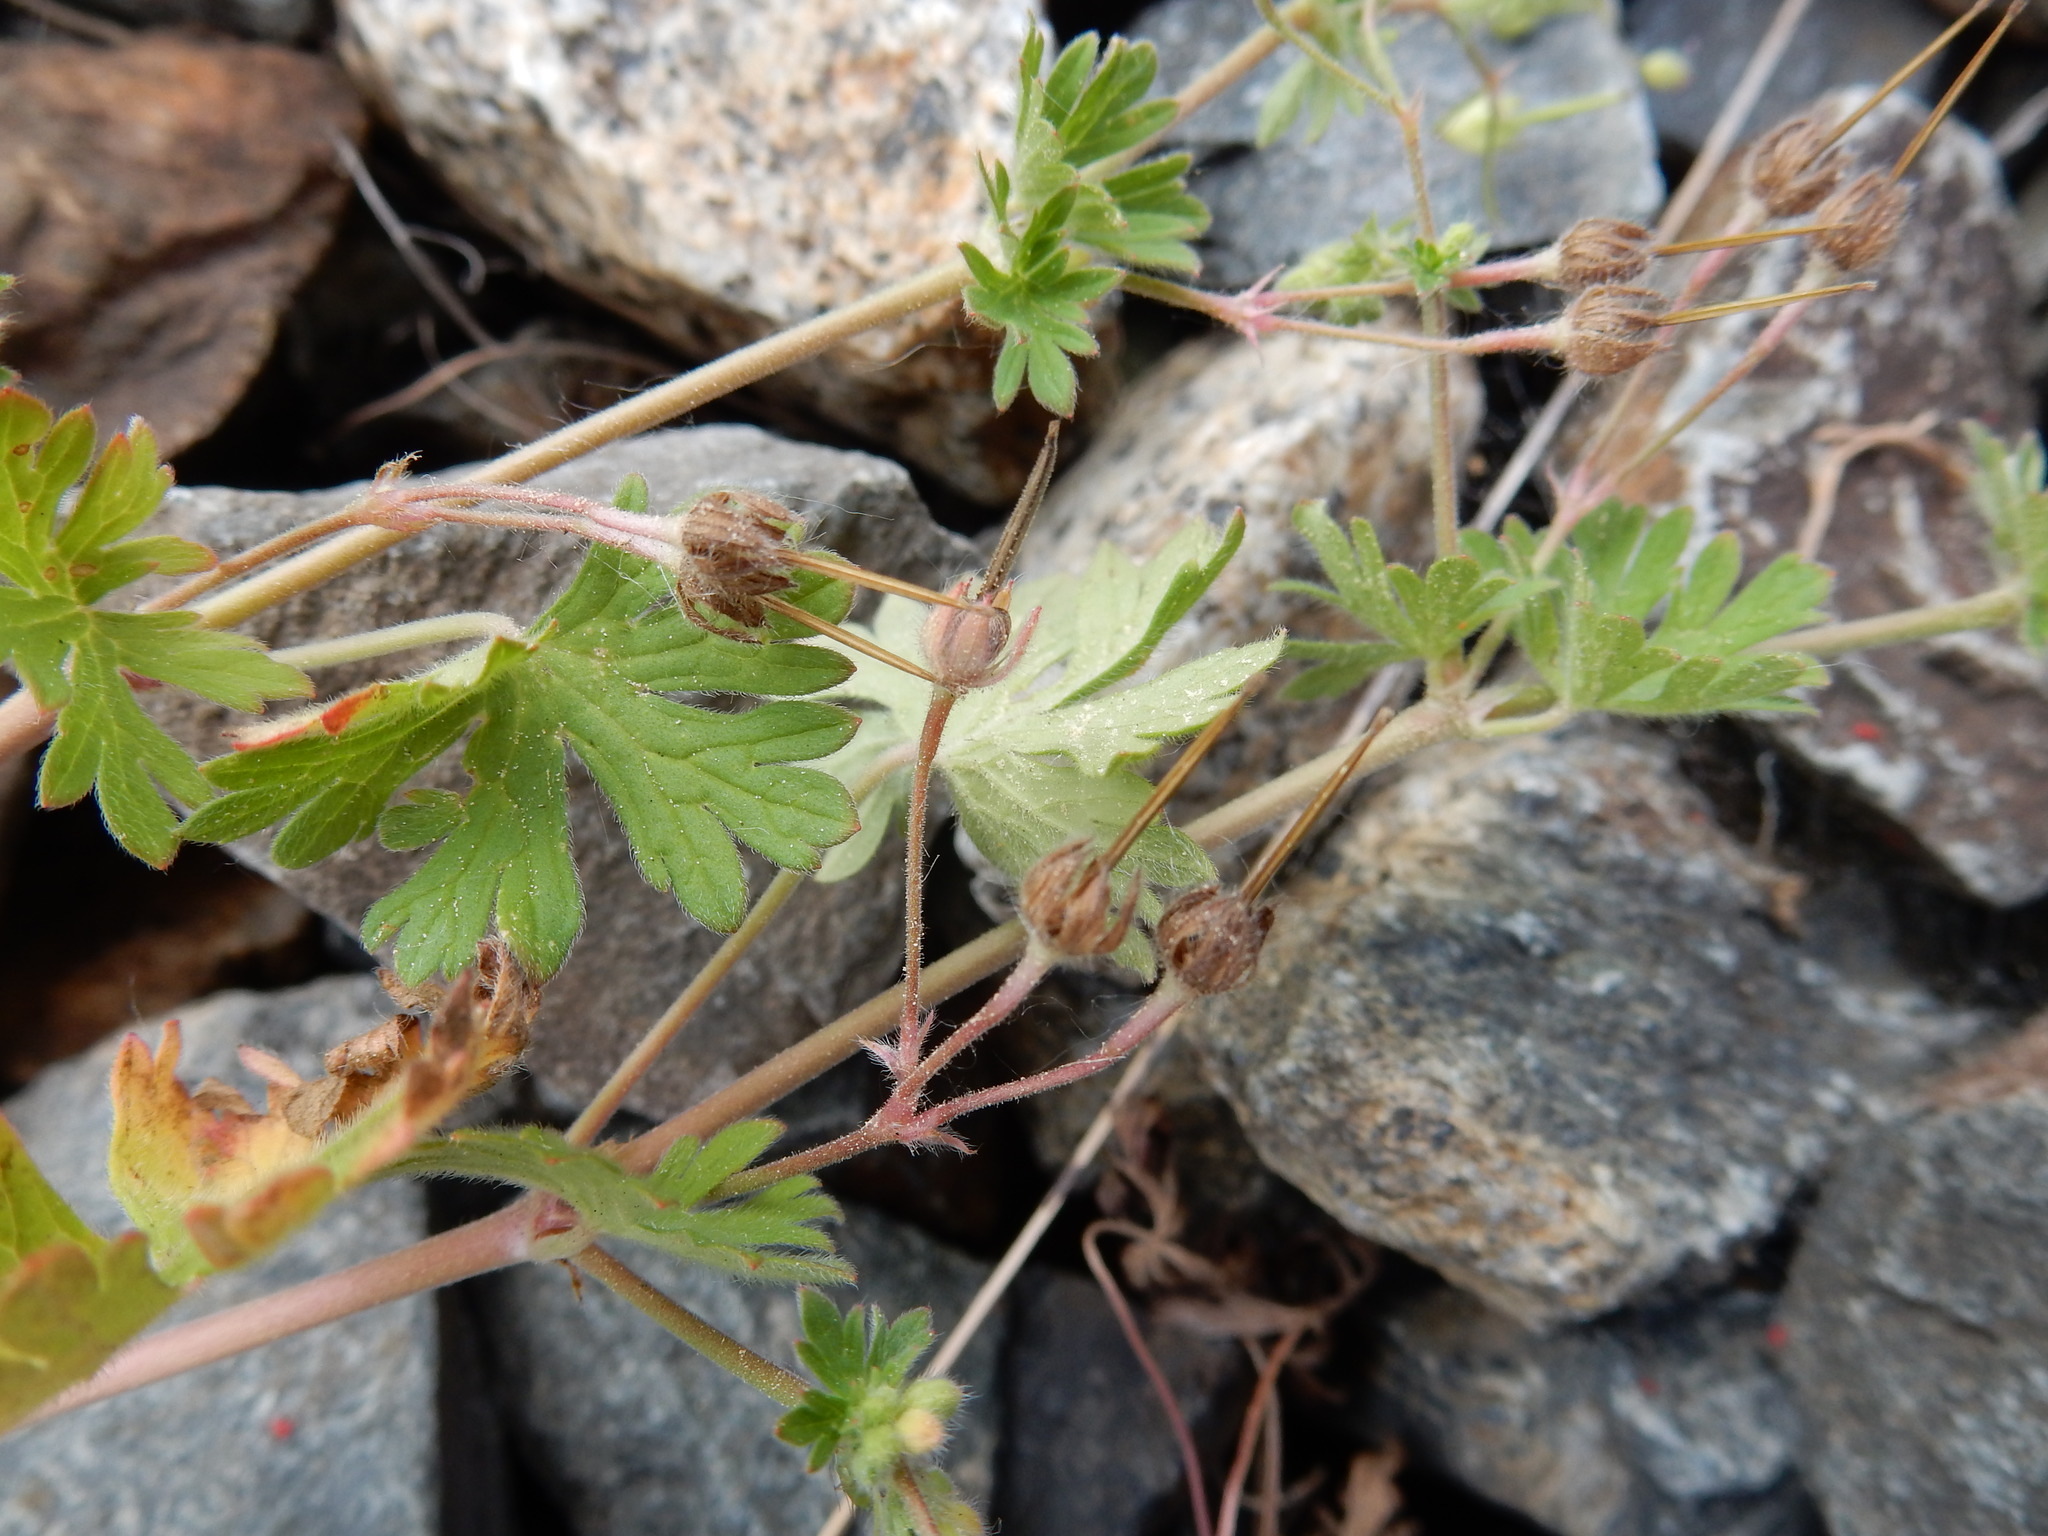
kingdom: Plantae
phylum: Tracheophyta
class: Magnoliopsida
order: Geraniales
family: Geraniaceae
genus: Geranium
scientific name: Geranium pusillum
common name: Small geranium
